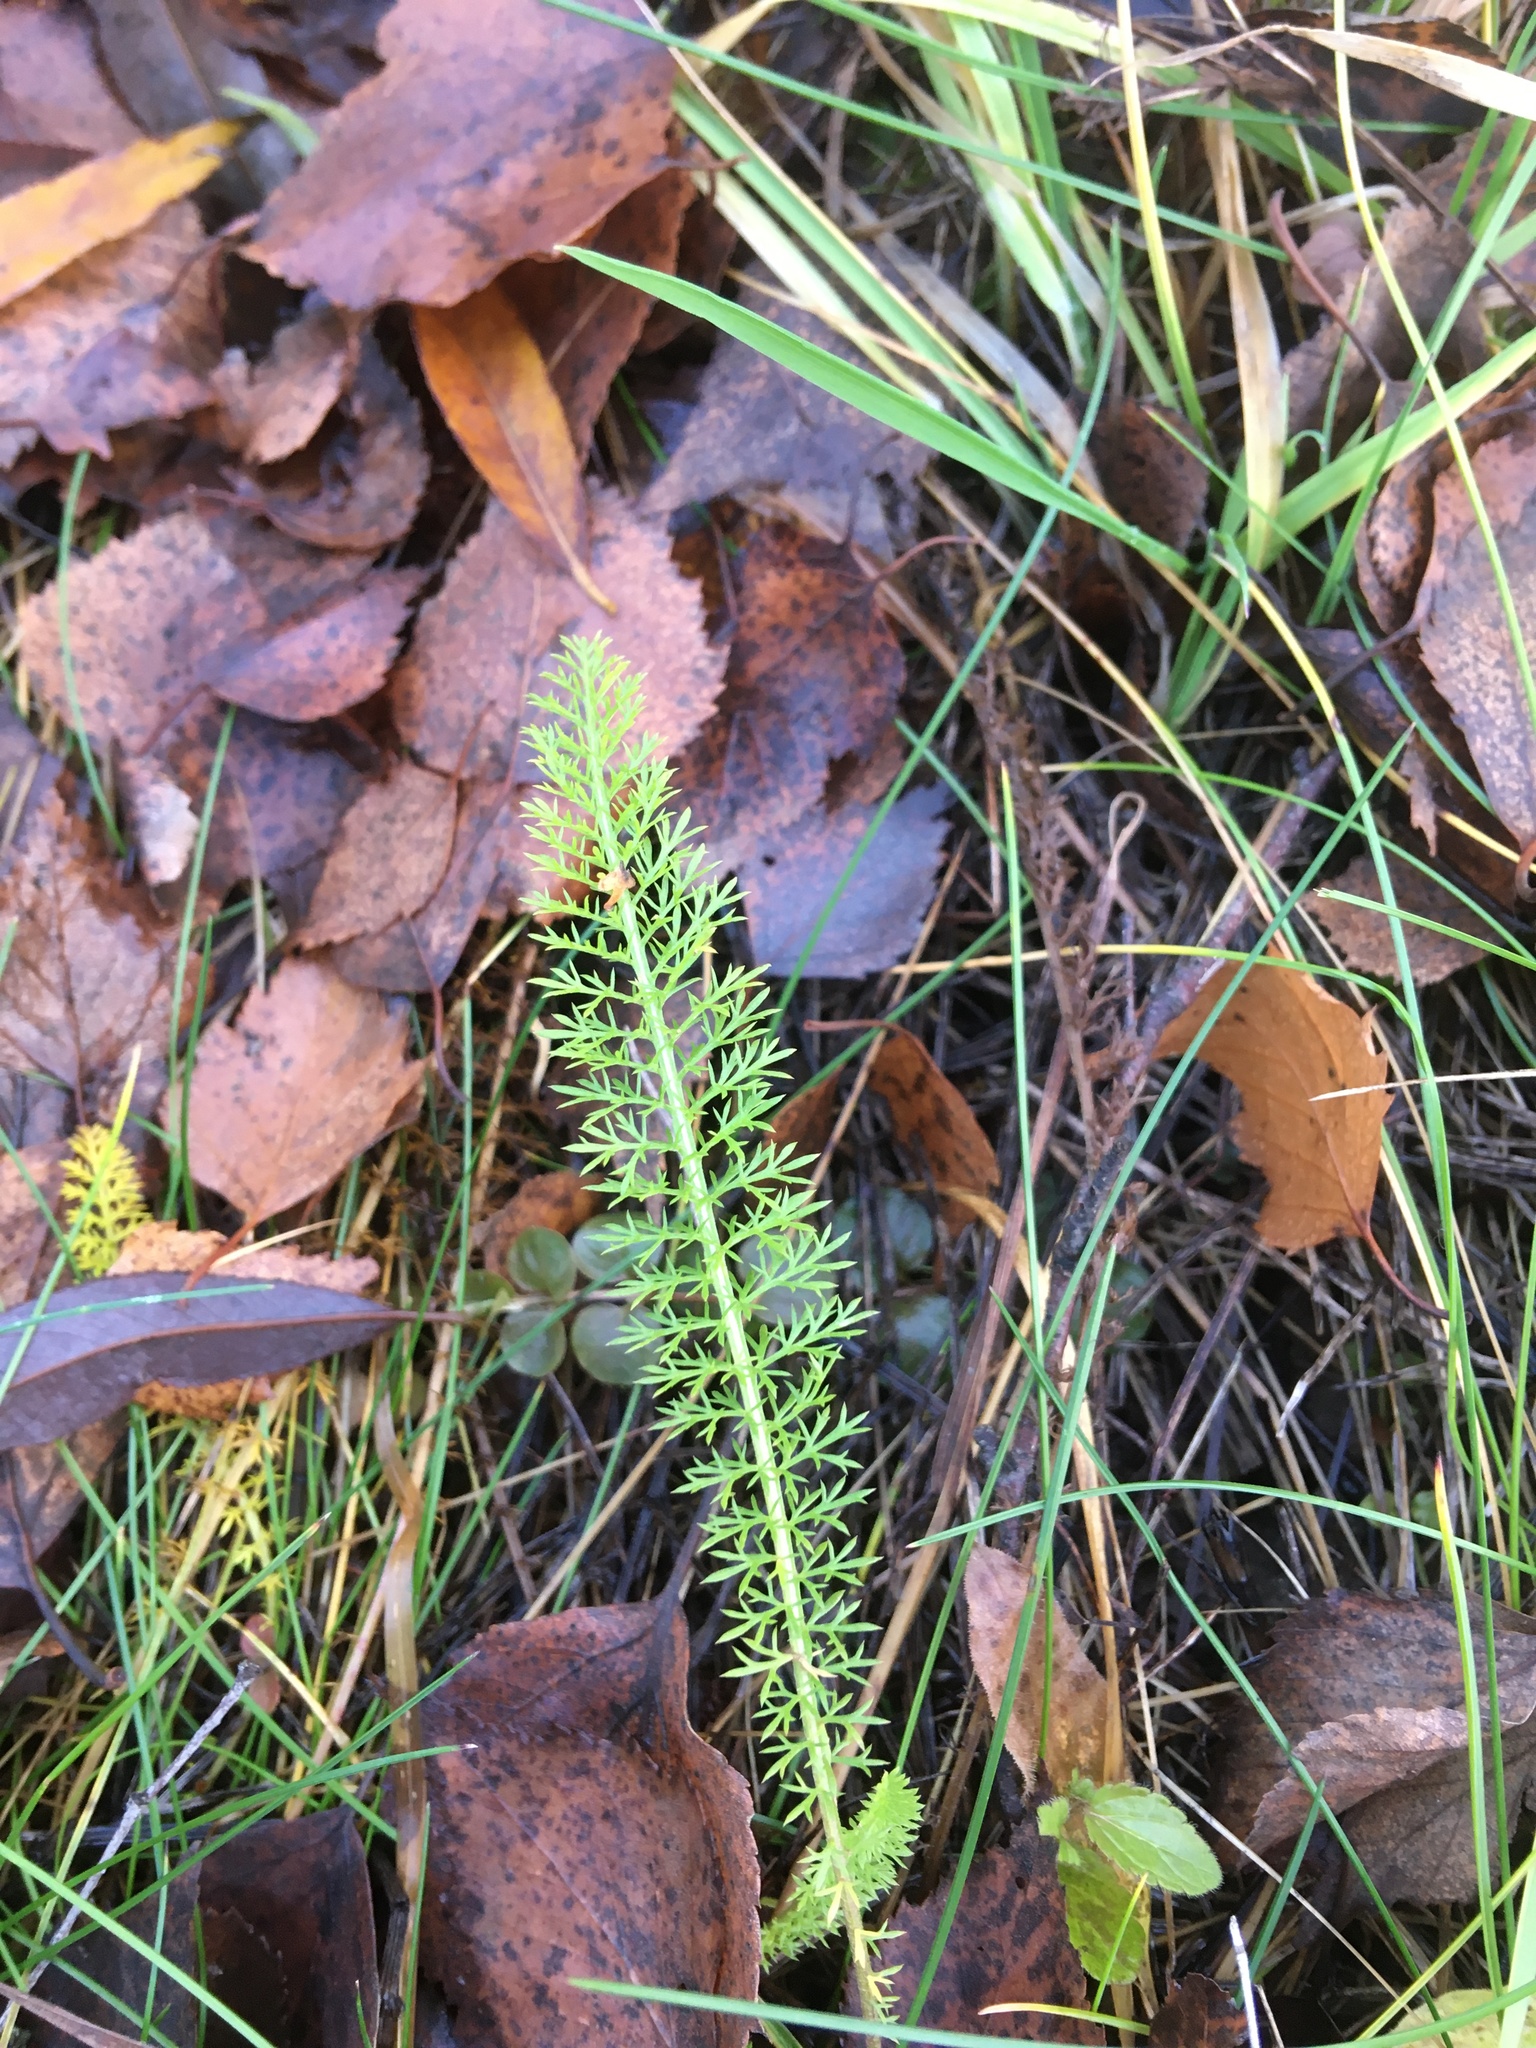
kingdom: Plantae
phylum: Tracheophyta
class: Magnoliopsida
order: Asterales
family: Asteraceae
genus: Achillea
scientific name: Achillea millefolium
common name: Yarrow
